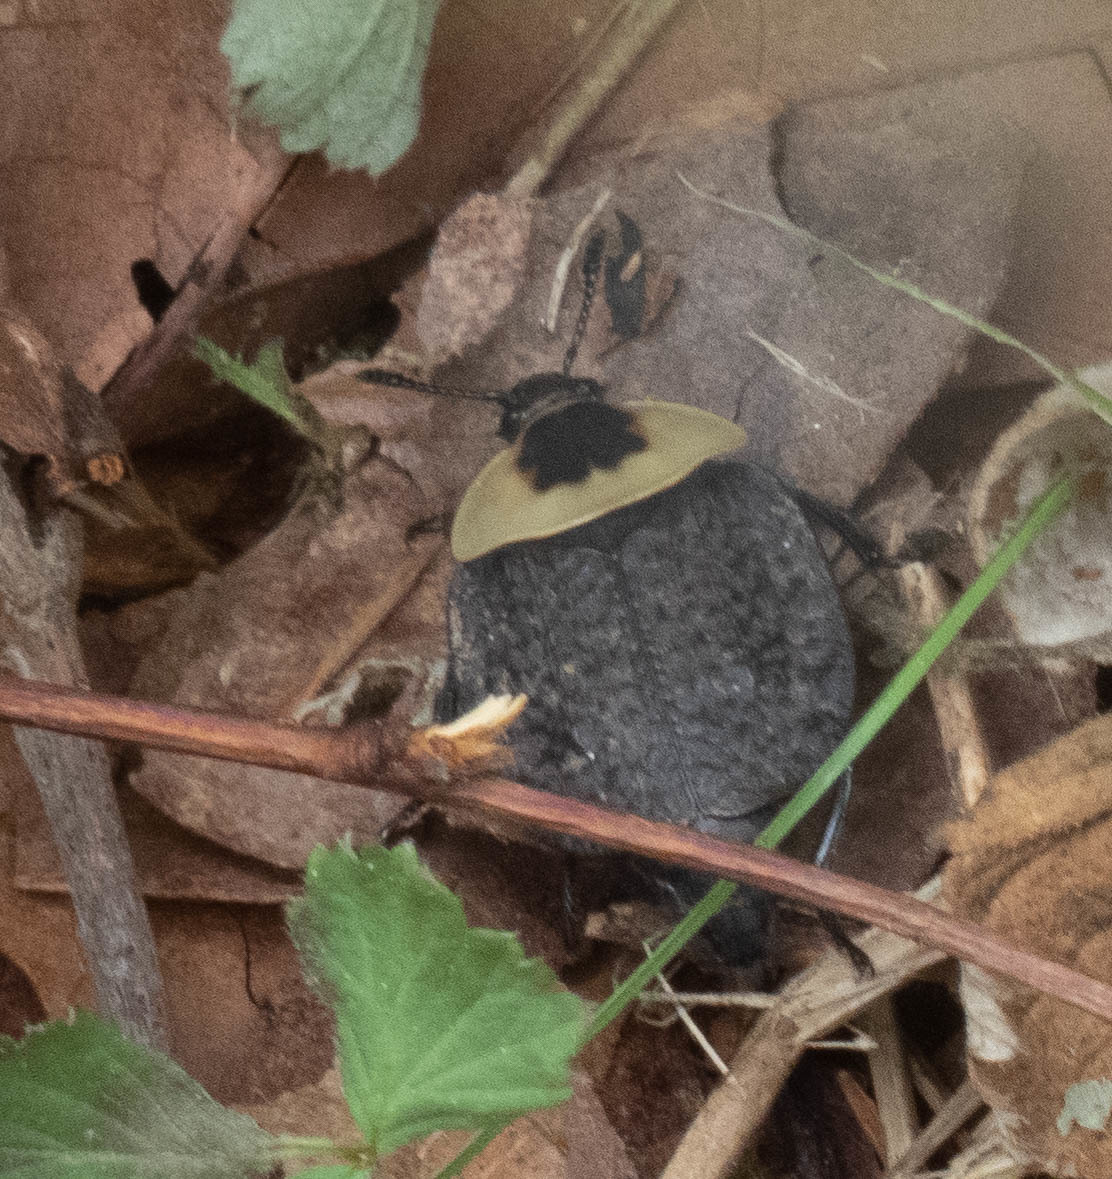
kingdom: Animalia
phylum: Arthropoda
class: Insecta
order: Coleoptera
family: Staphylinidae
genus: Necrophila
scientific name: Necrophila americana
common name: American carrion beetle
